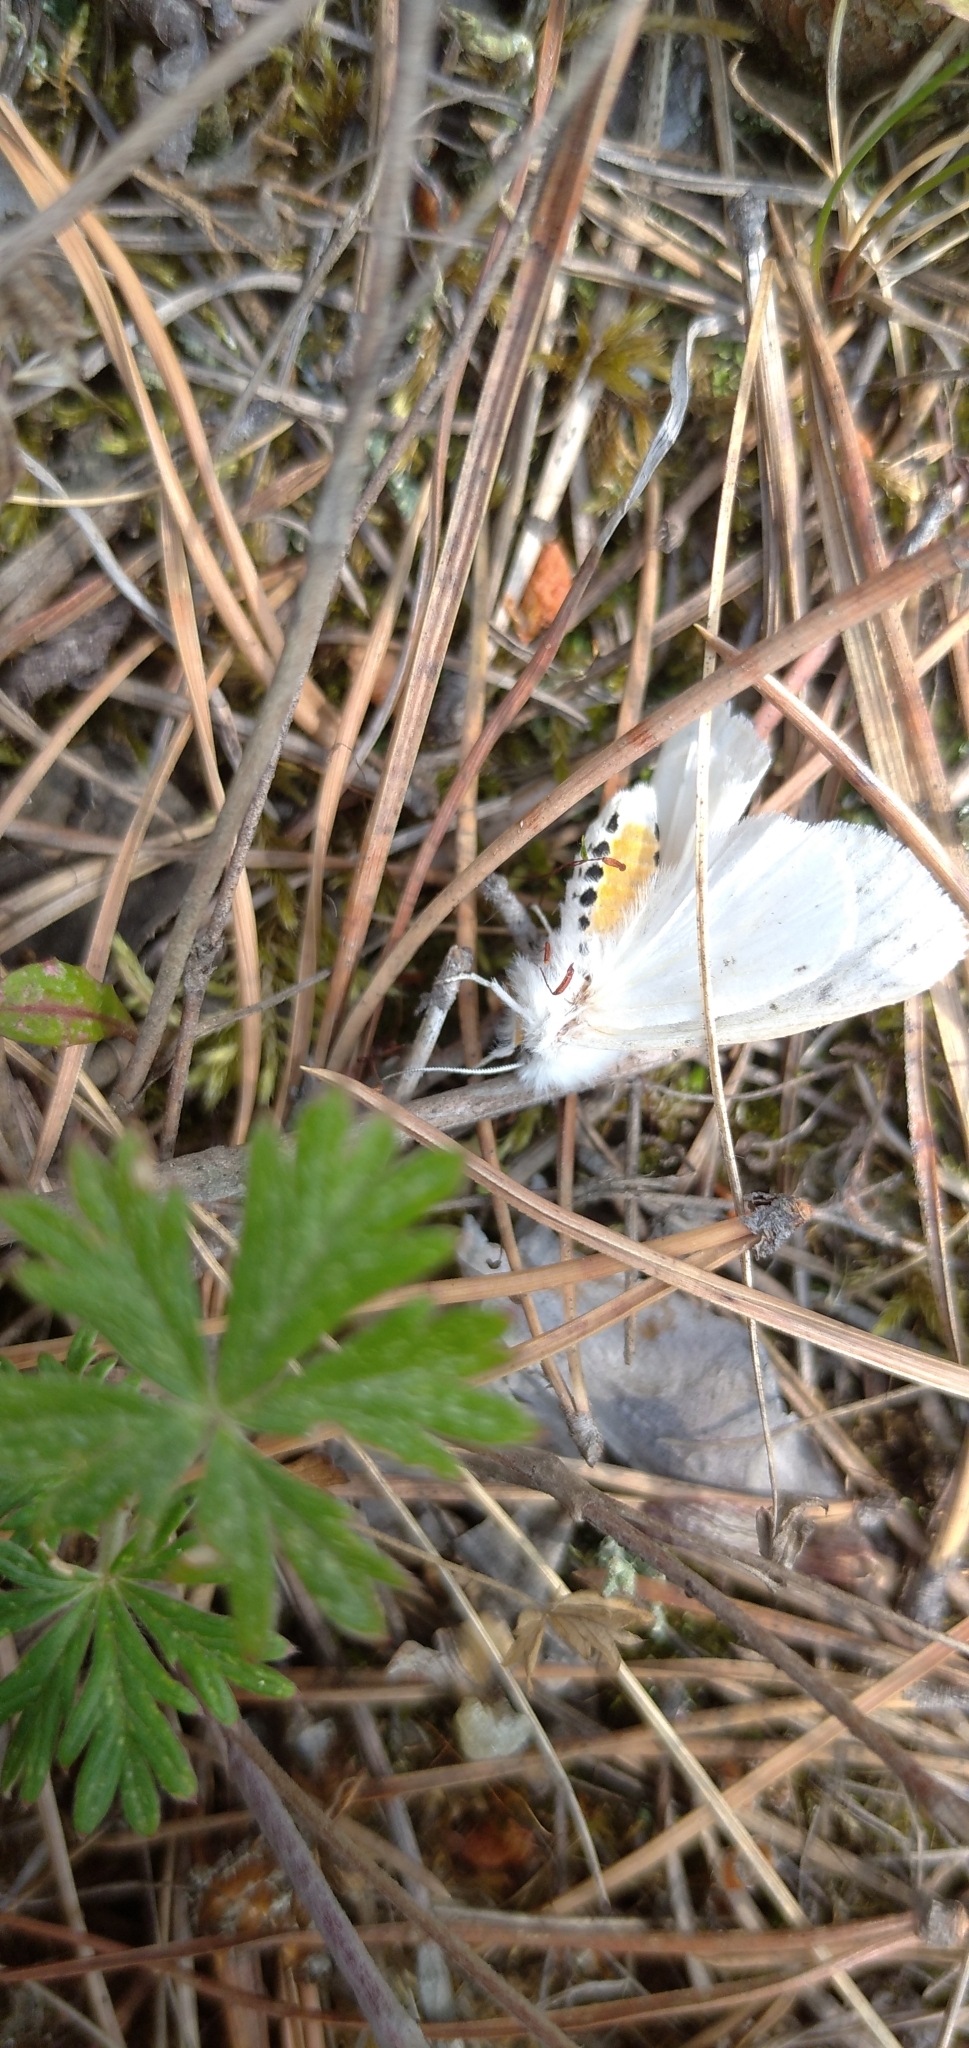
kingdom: Animalia
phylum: Arthropoda
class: Insecta
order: Lepidoptera
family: Erebidae
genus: Spilosoma
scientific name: Spilosoma urticae
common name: Water ermine
